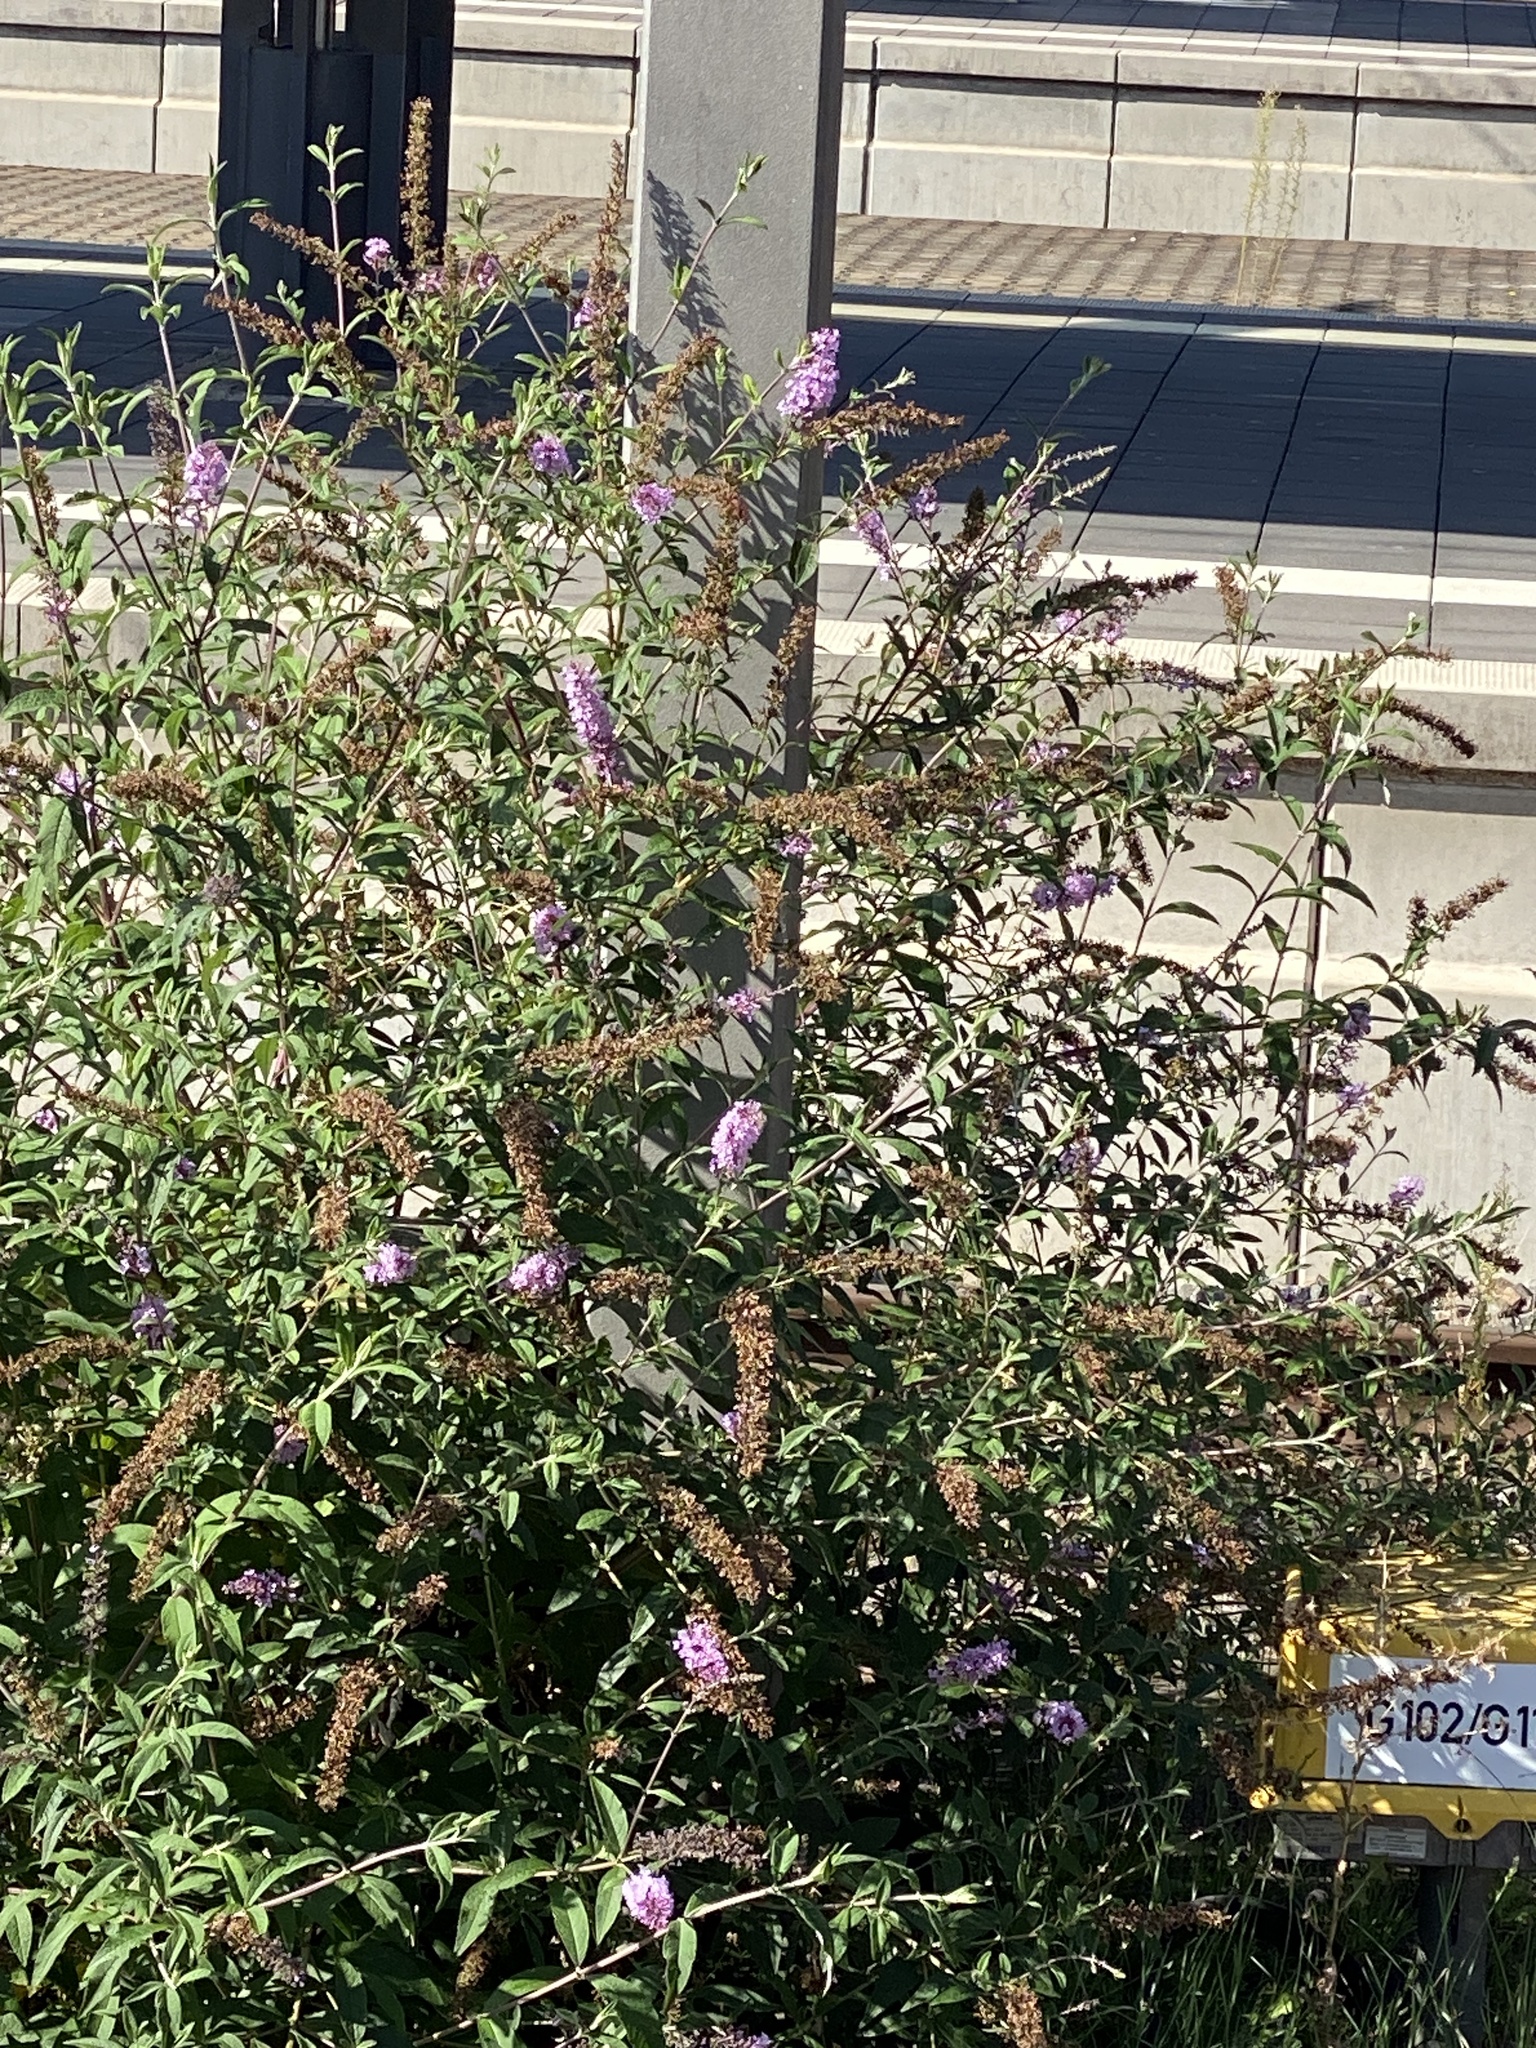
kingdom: Plantae
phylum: Tracheophyta
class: Magnoliopsida
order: Lamiales
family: Scrophulariaceae
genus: Buddleja
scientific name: Buddleja davidii
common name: Butterfly-bush
